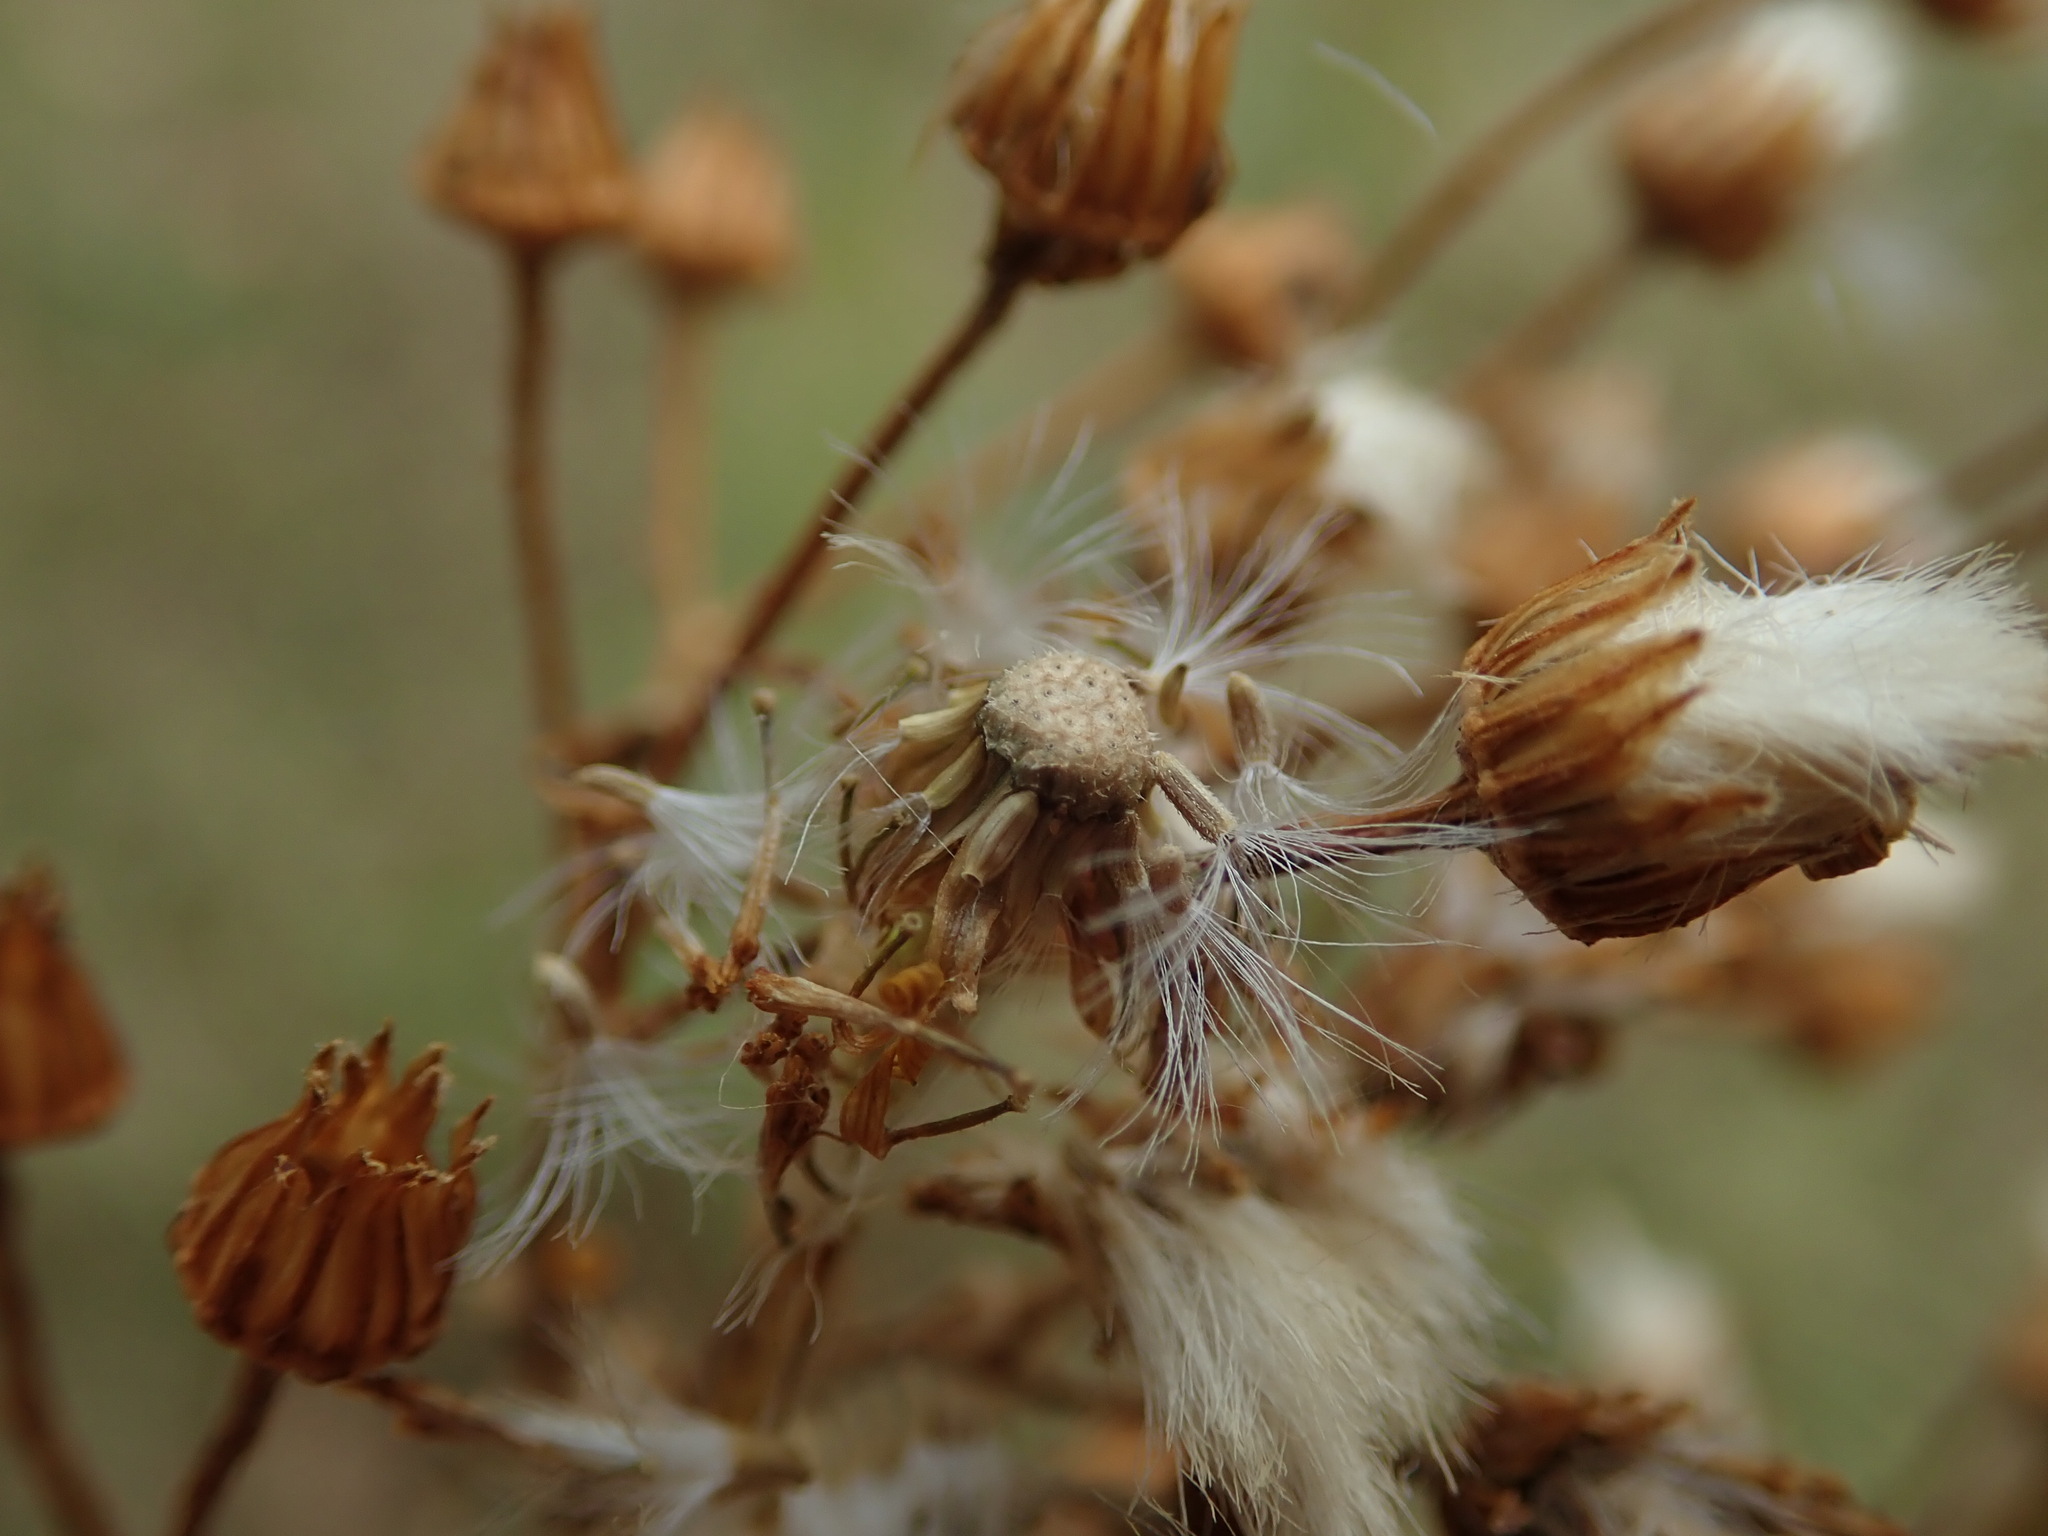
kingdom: Plantae
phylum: Tracheophyta
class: Magnoliopsida
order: Asterales
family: Asteraceae
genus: Jacobaea
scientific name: Jacobaea vulgaris
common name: Stinking willie
